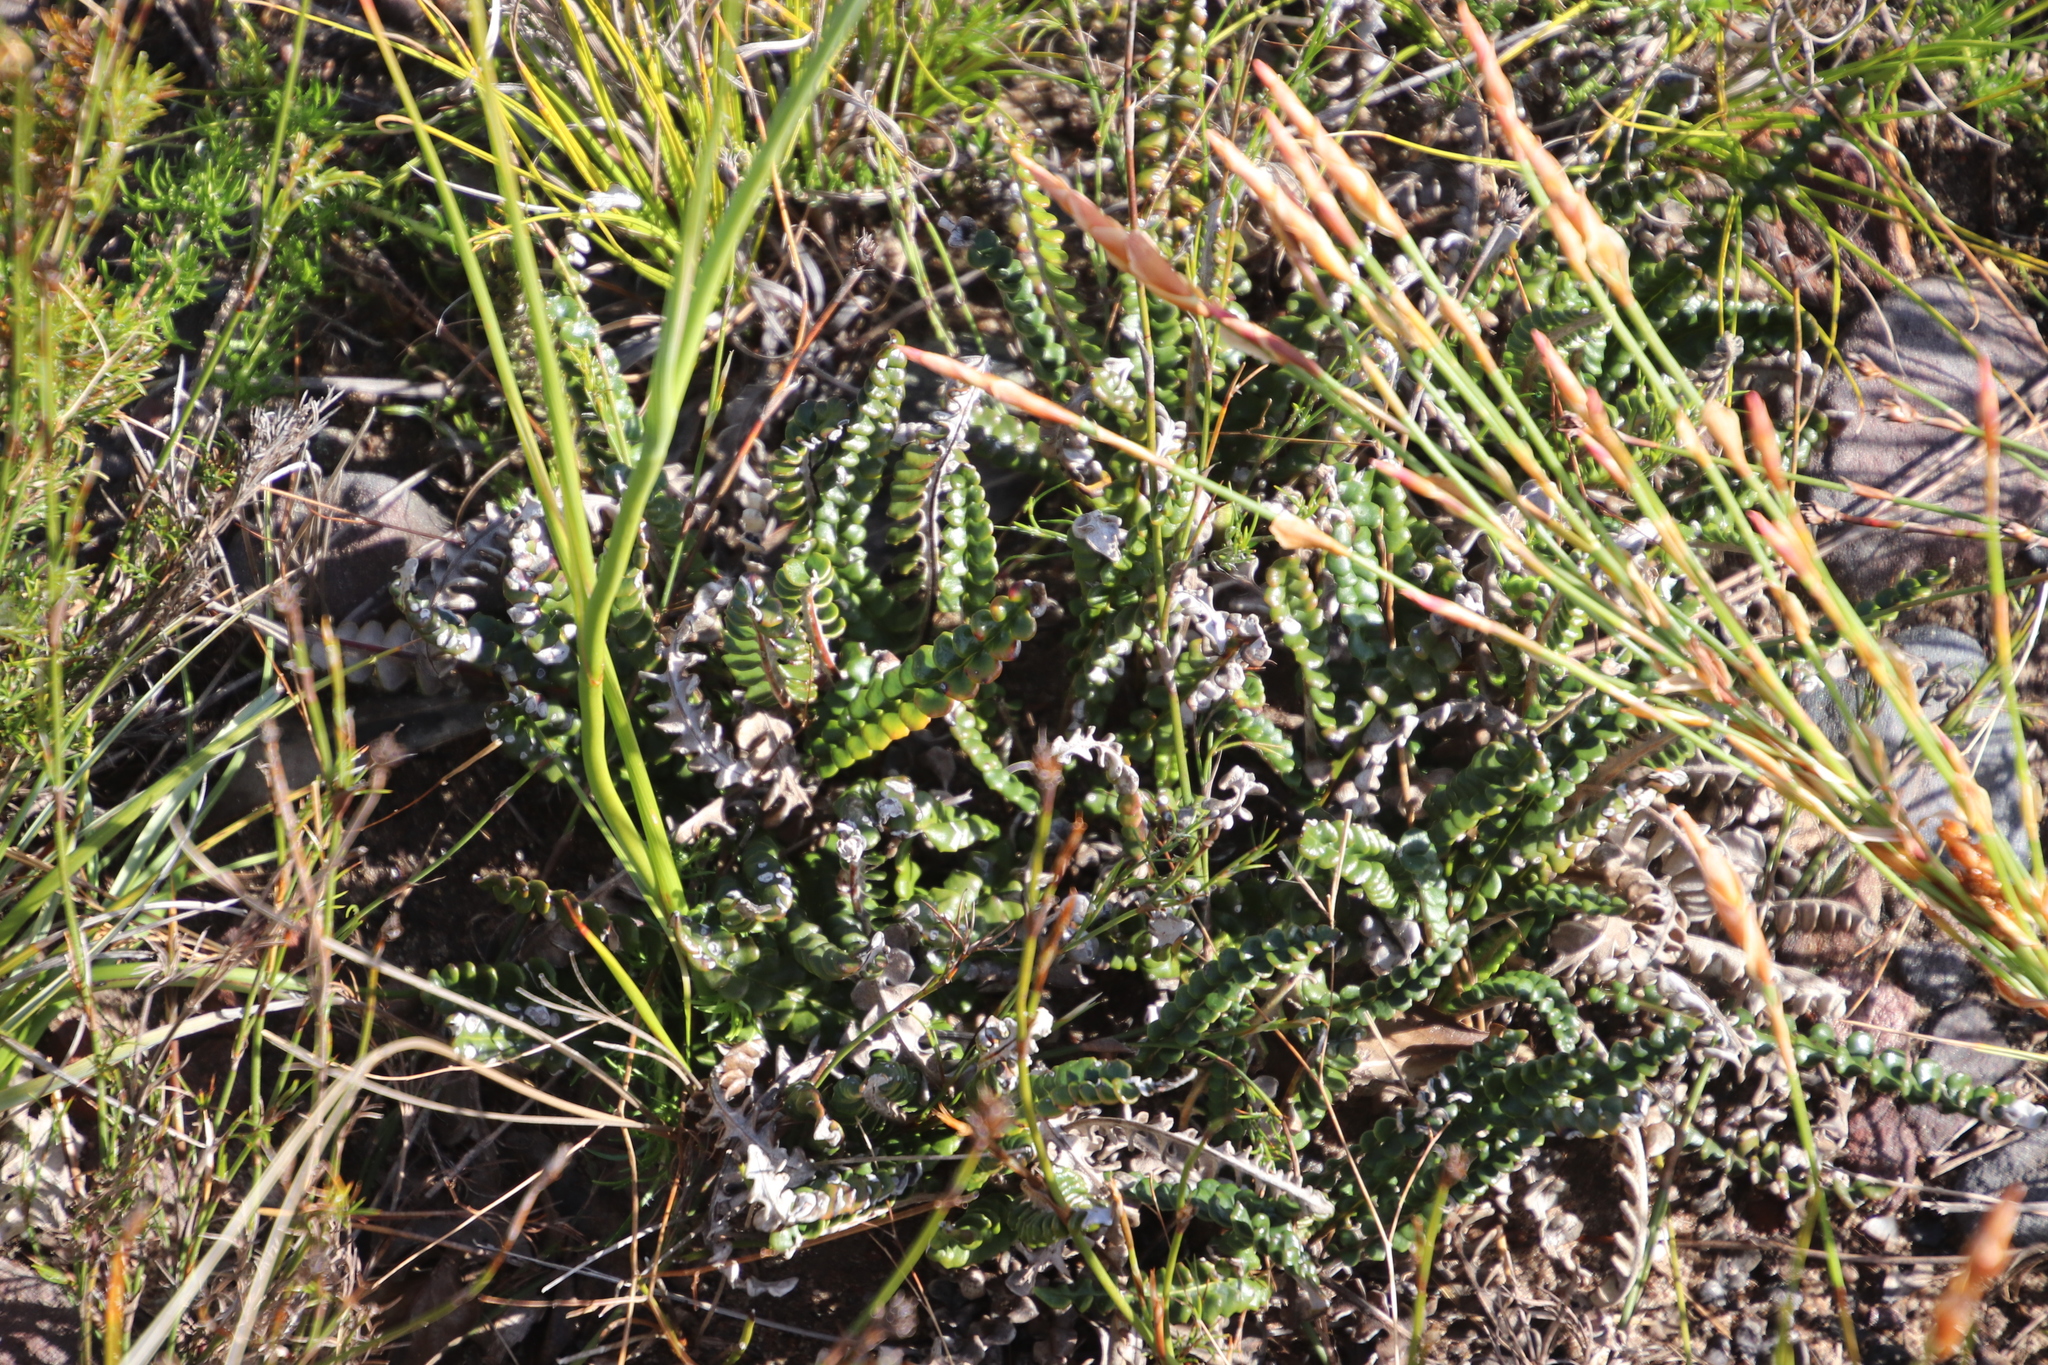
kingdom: Plantae
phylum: Tracheophyta
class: Magnoliopsida
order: Asterales
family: Asteraceae
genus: Gerbera
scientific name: Gerbera linnaei
